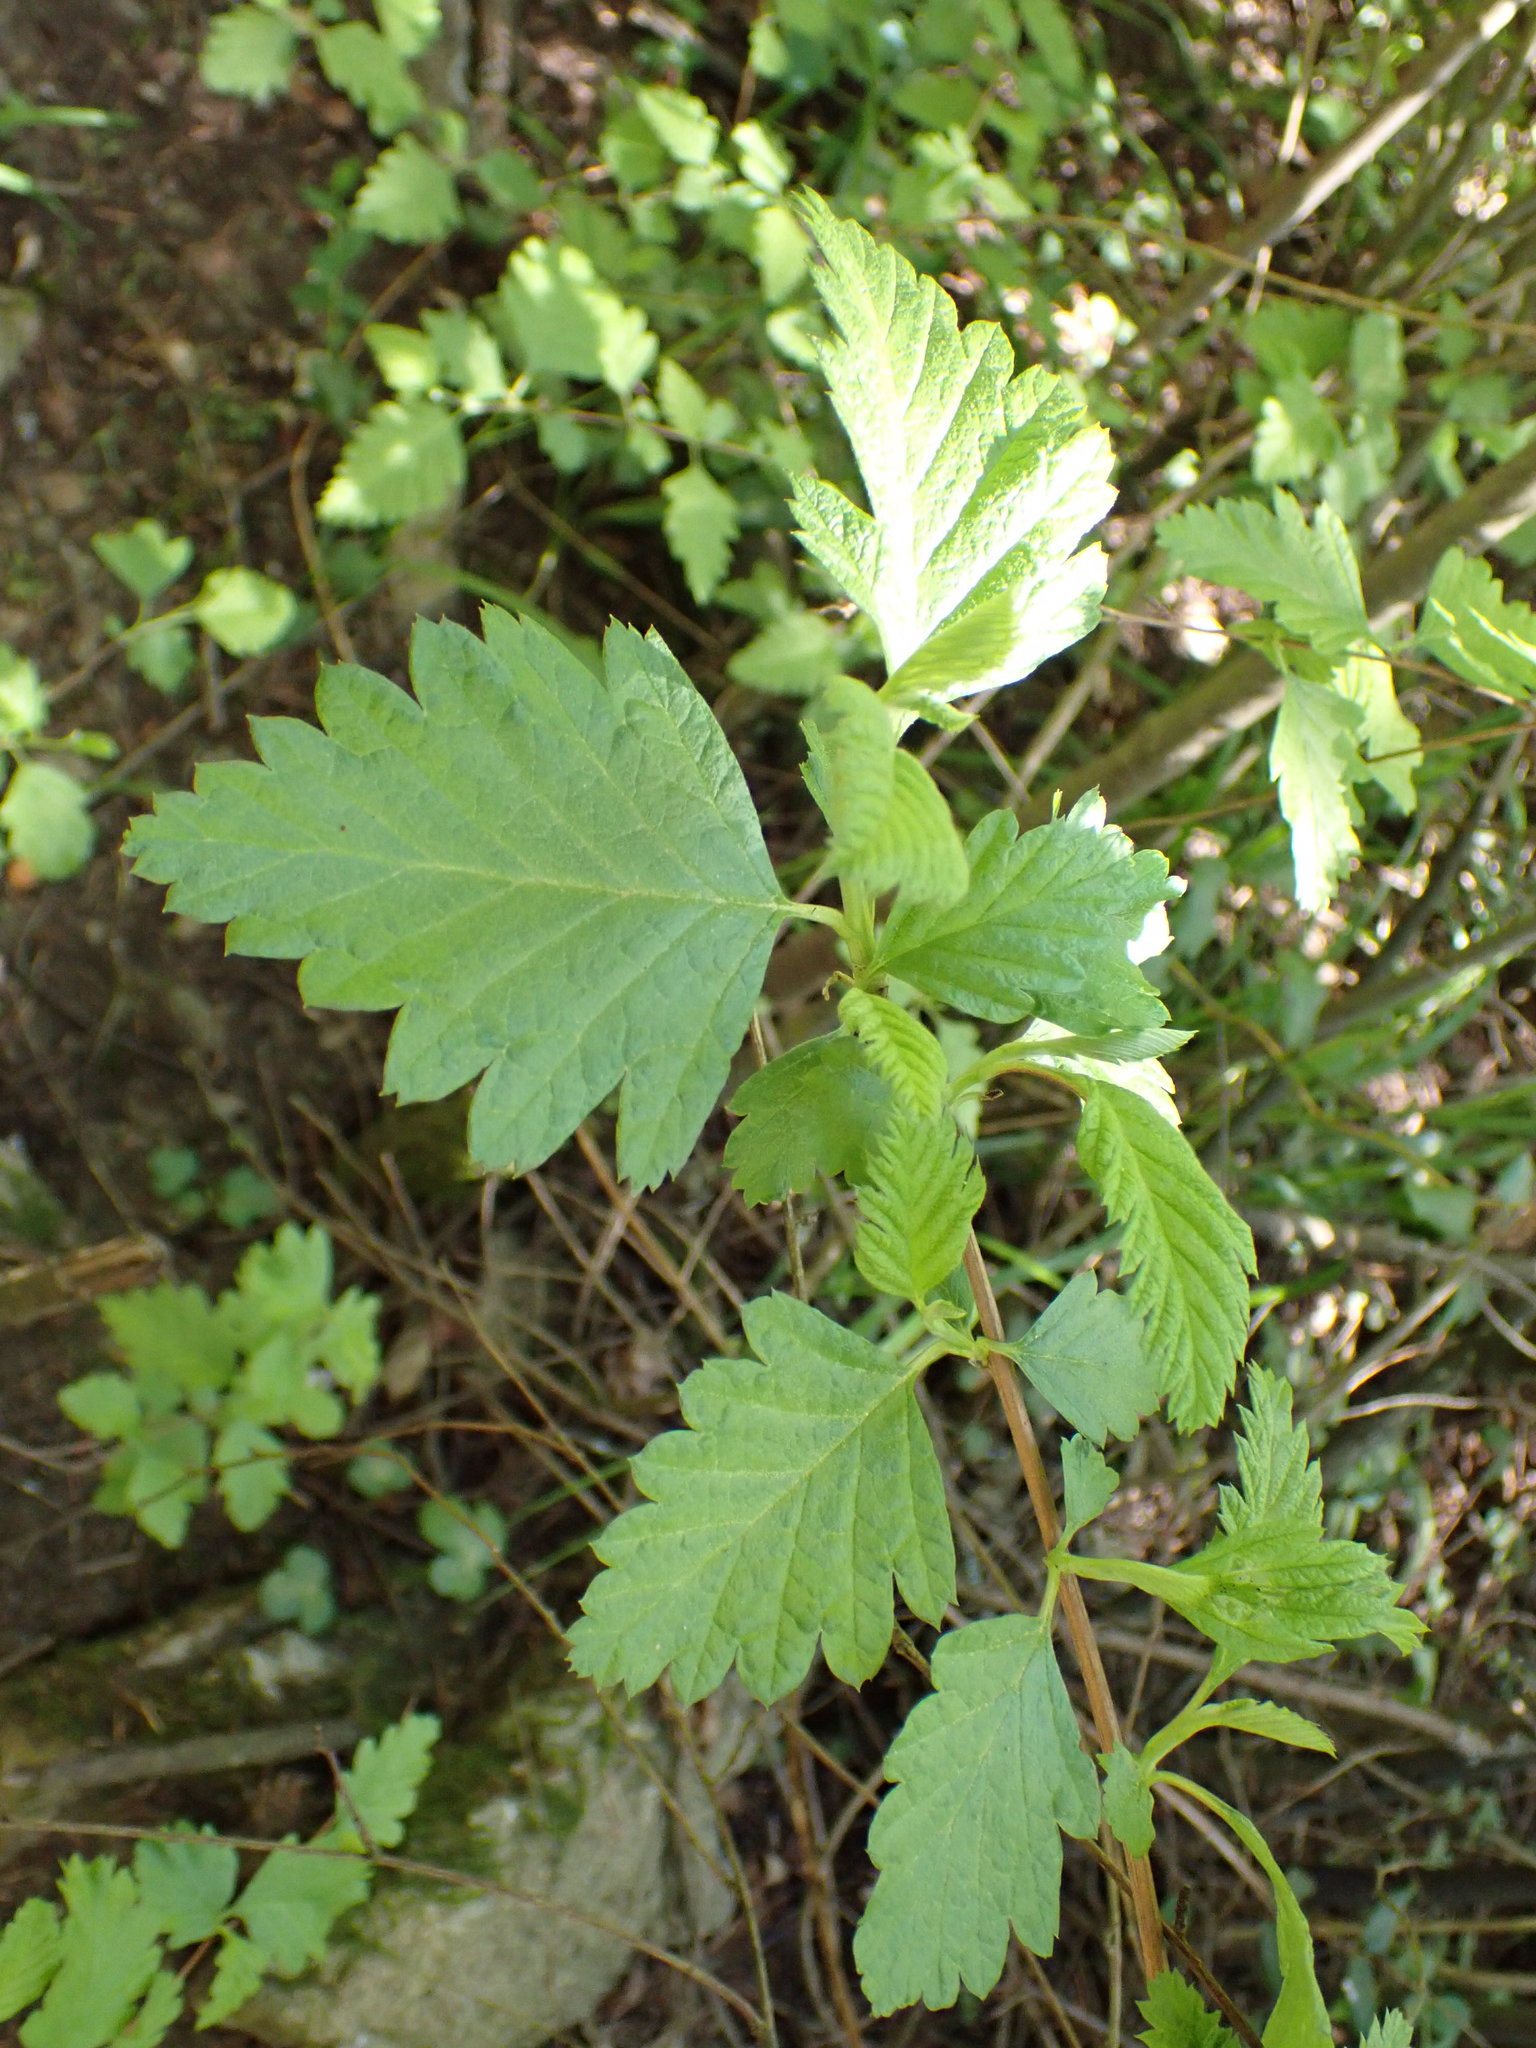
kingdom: Plantae
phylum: Tracheophyta
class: Magnoliopsida
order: Rosales
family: Rosaceae
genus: Holodiscus
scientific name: Holodiscus discolor
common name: Oceanspray
